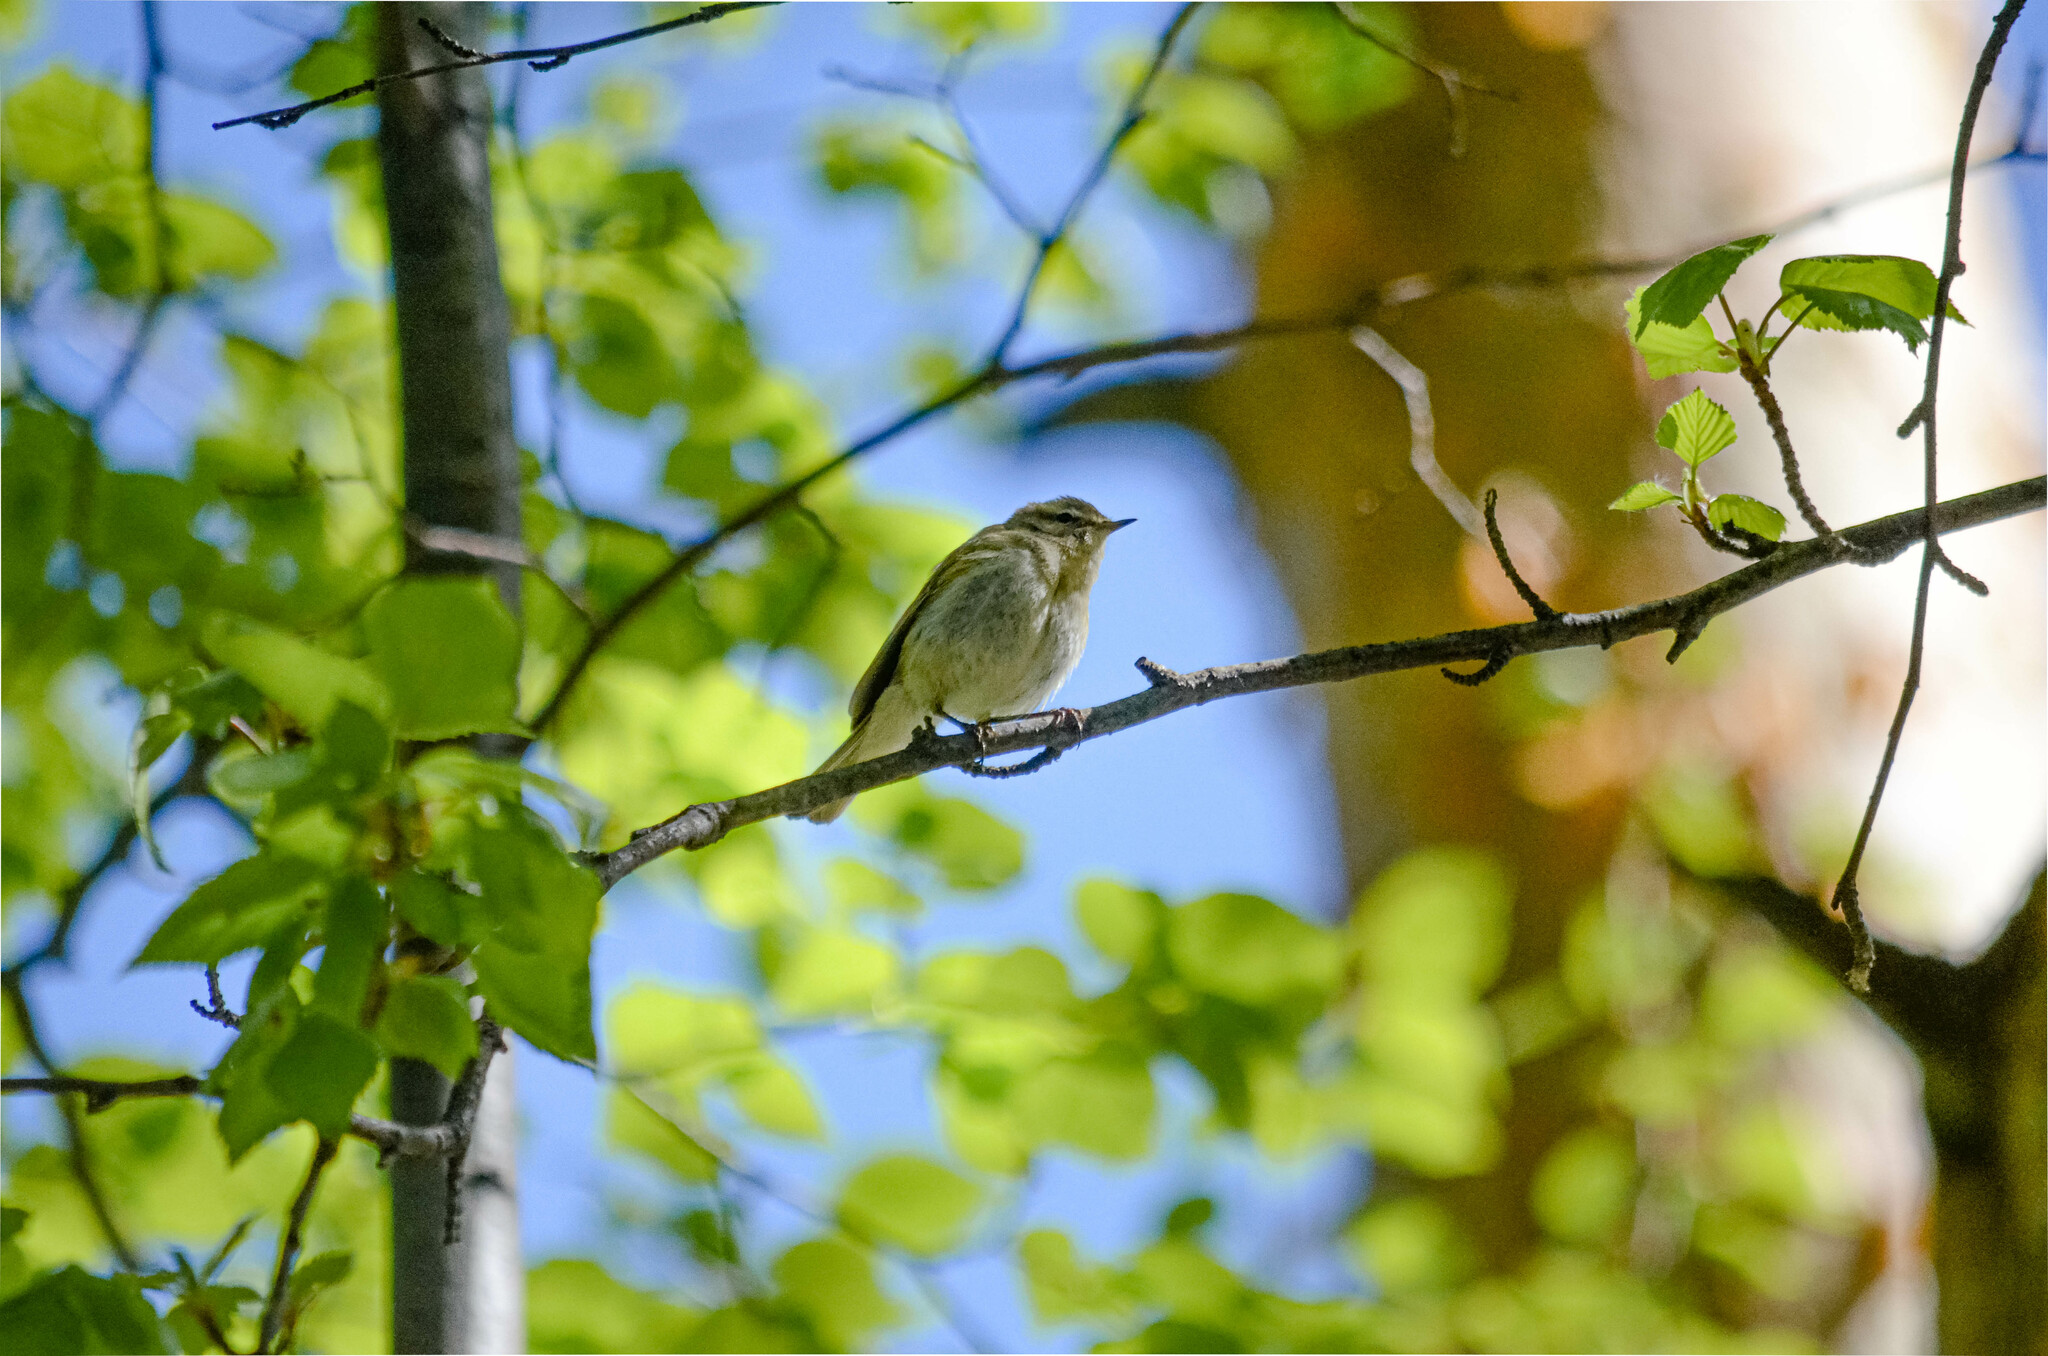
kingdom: Animalia
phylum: Chordata
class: Aves
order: Passeriformes
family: Phylloscopidae
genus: Phylloscopus
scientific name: Phylloscopus collybita
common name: Common chiffchaff
